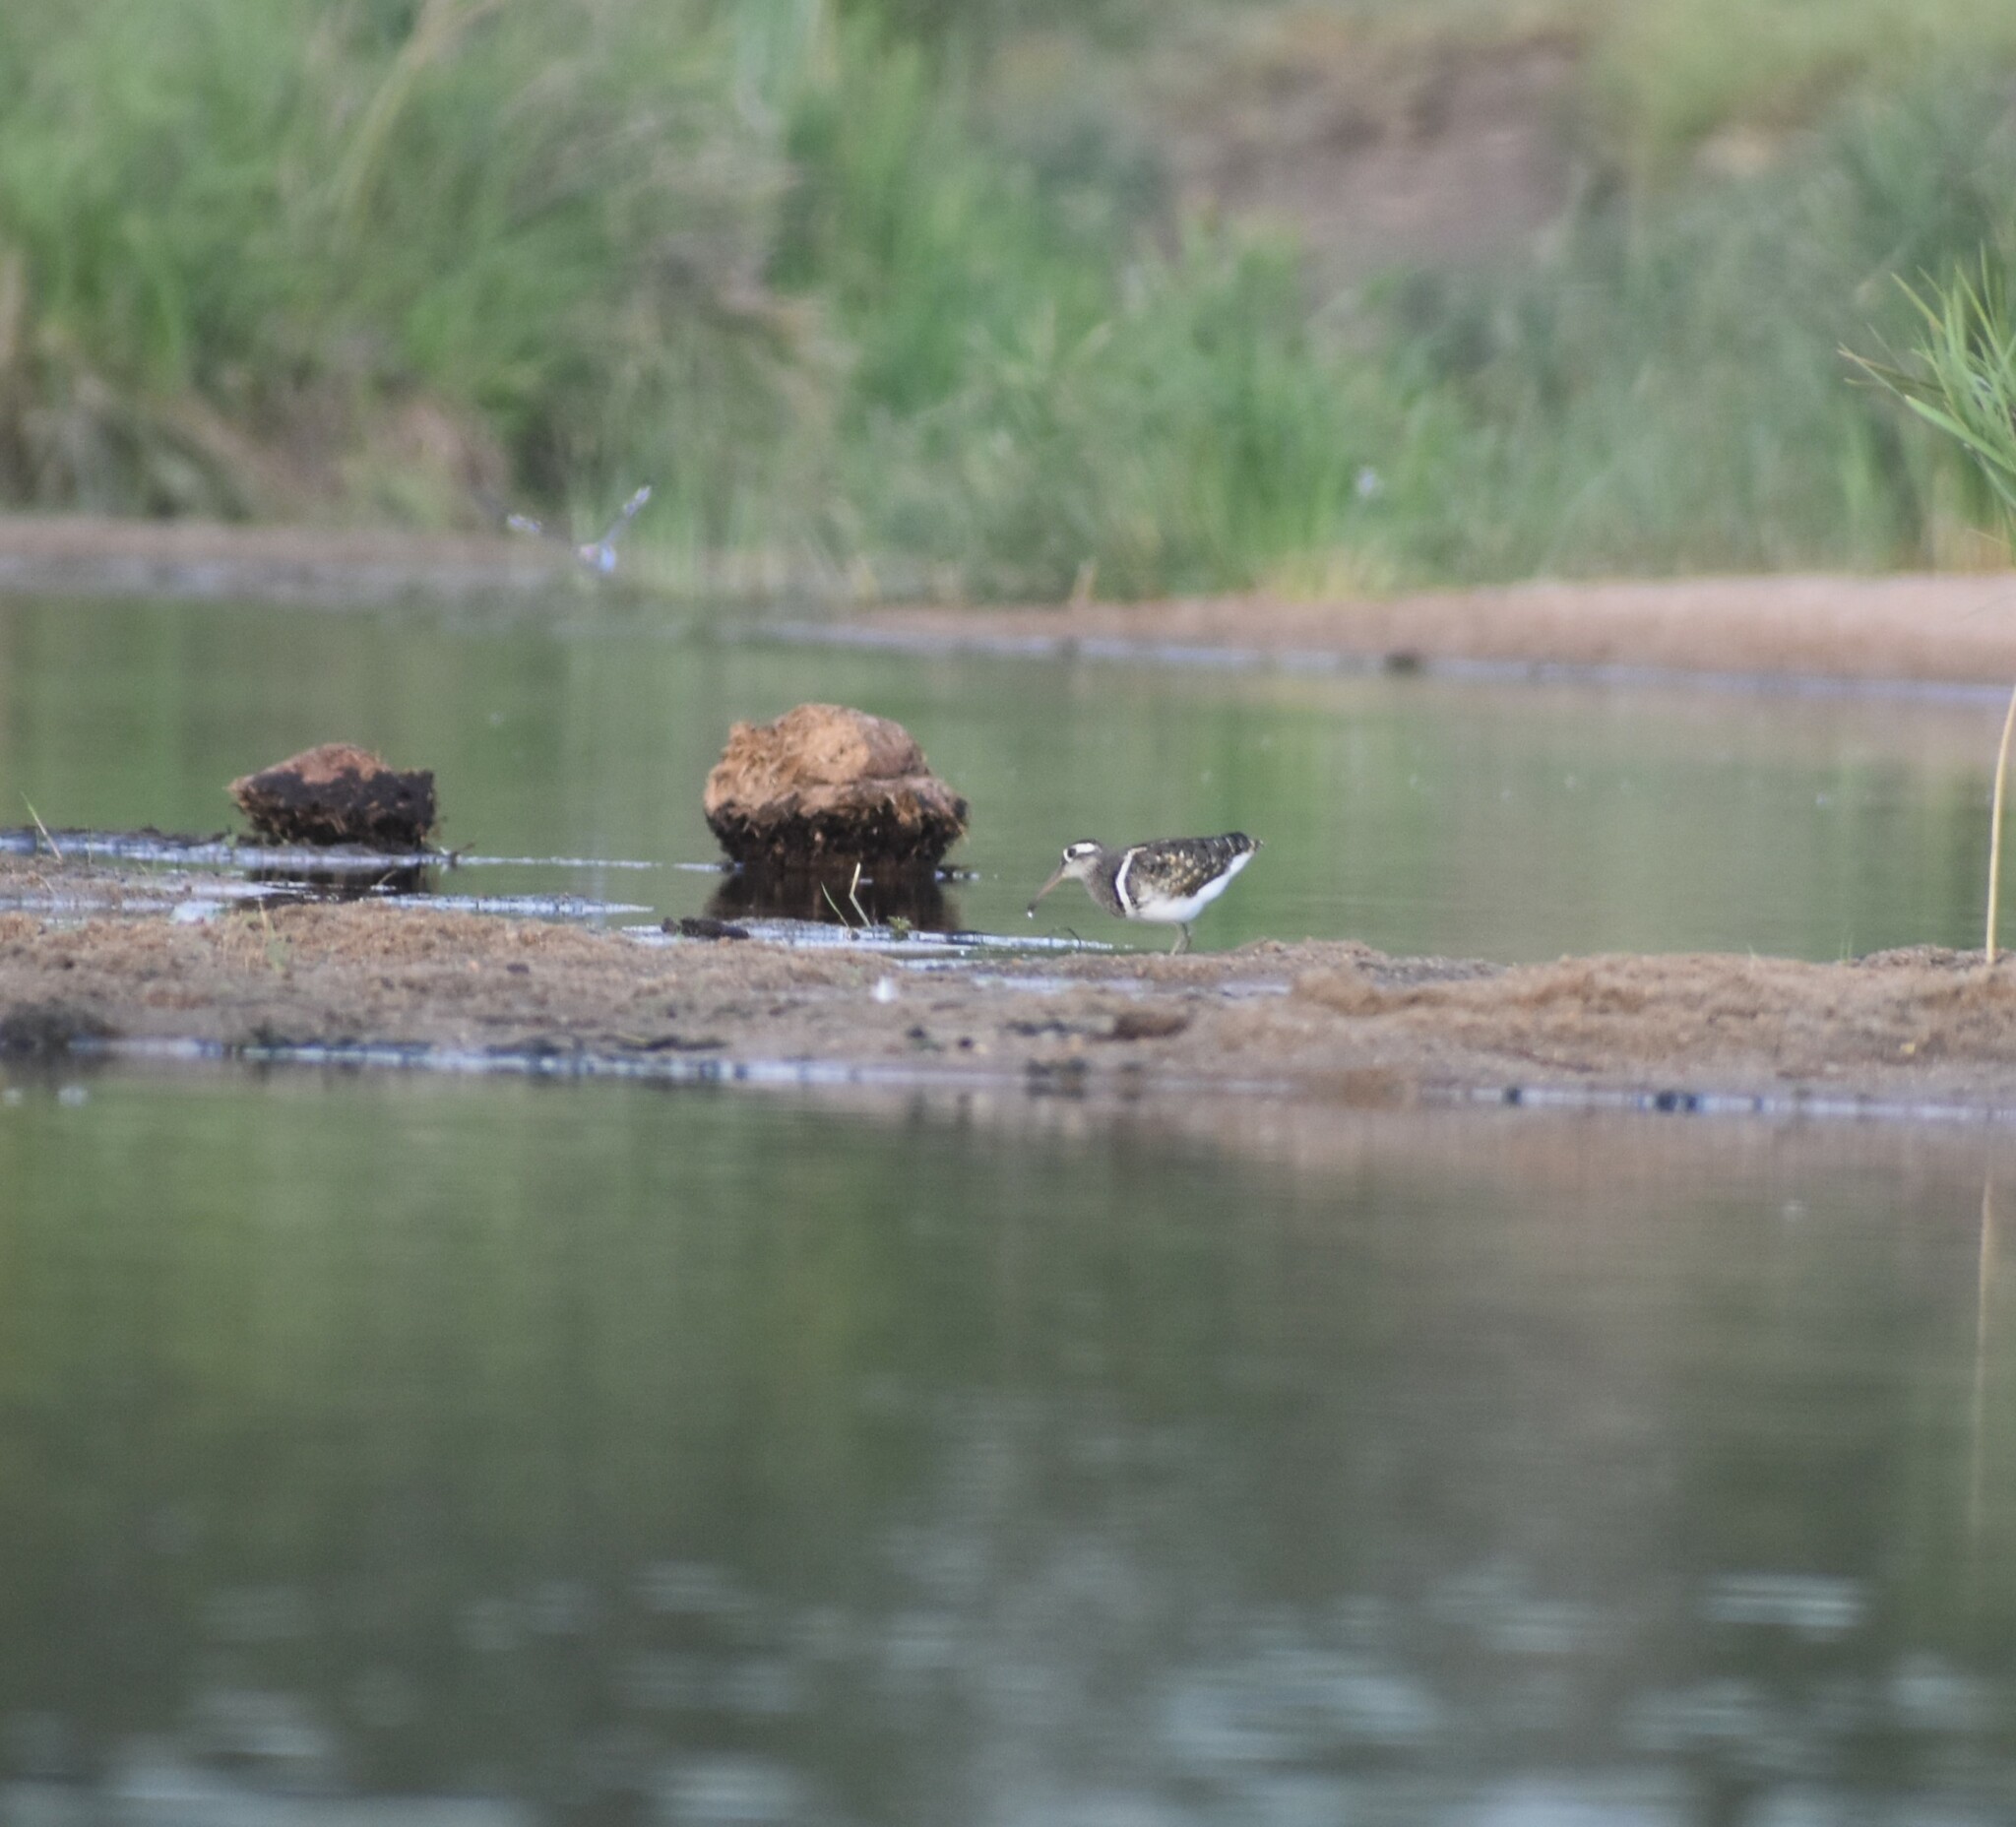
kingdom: Animalia
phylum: Chordata
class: Aves
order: Charadriiformes
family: Rostratulidae
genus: Rostratula
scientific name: Rostratula benghalensis
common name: Greater painted-snipe
